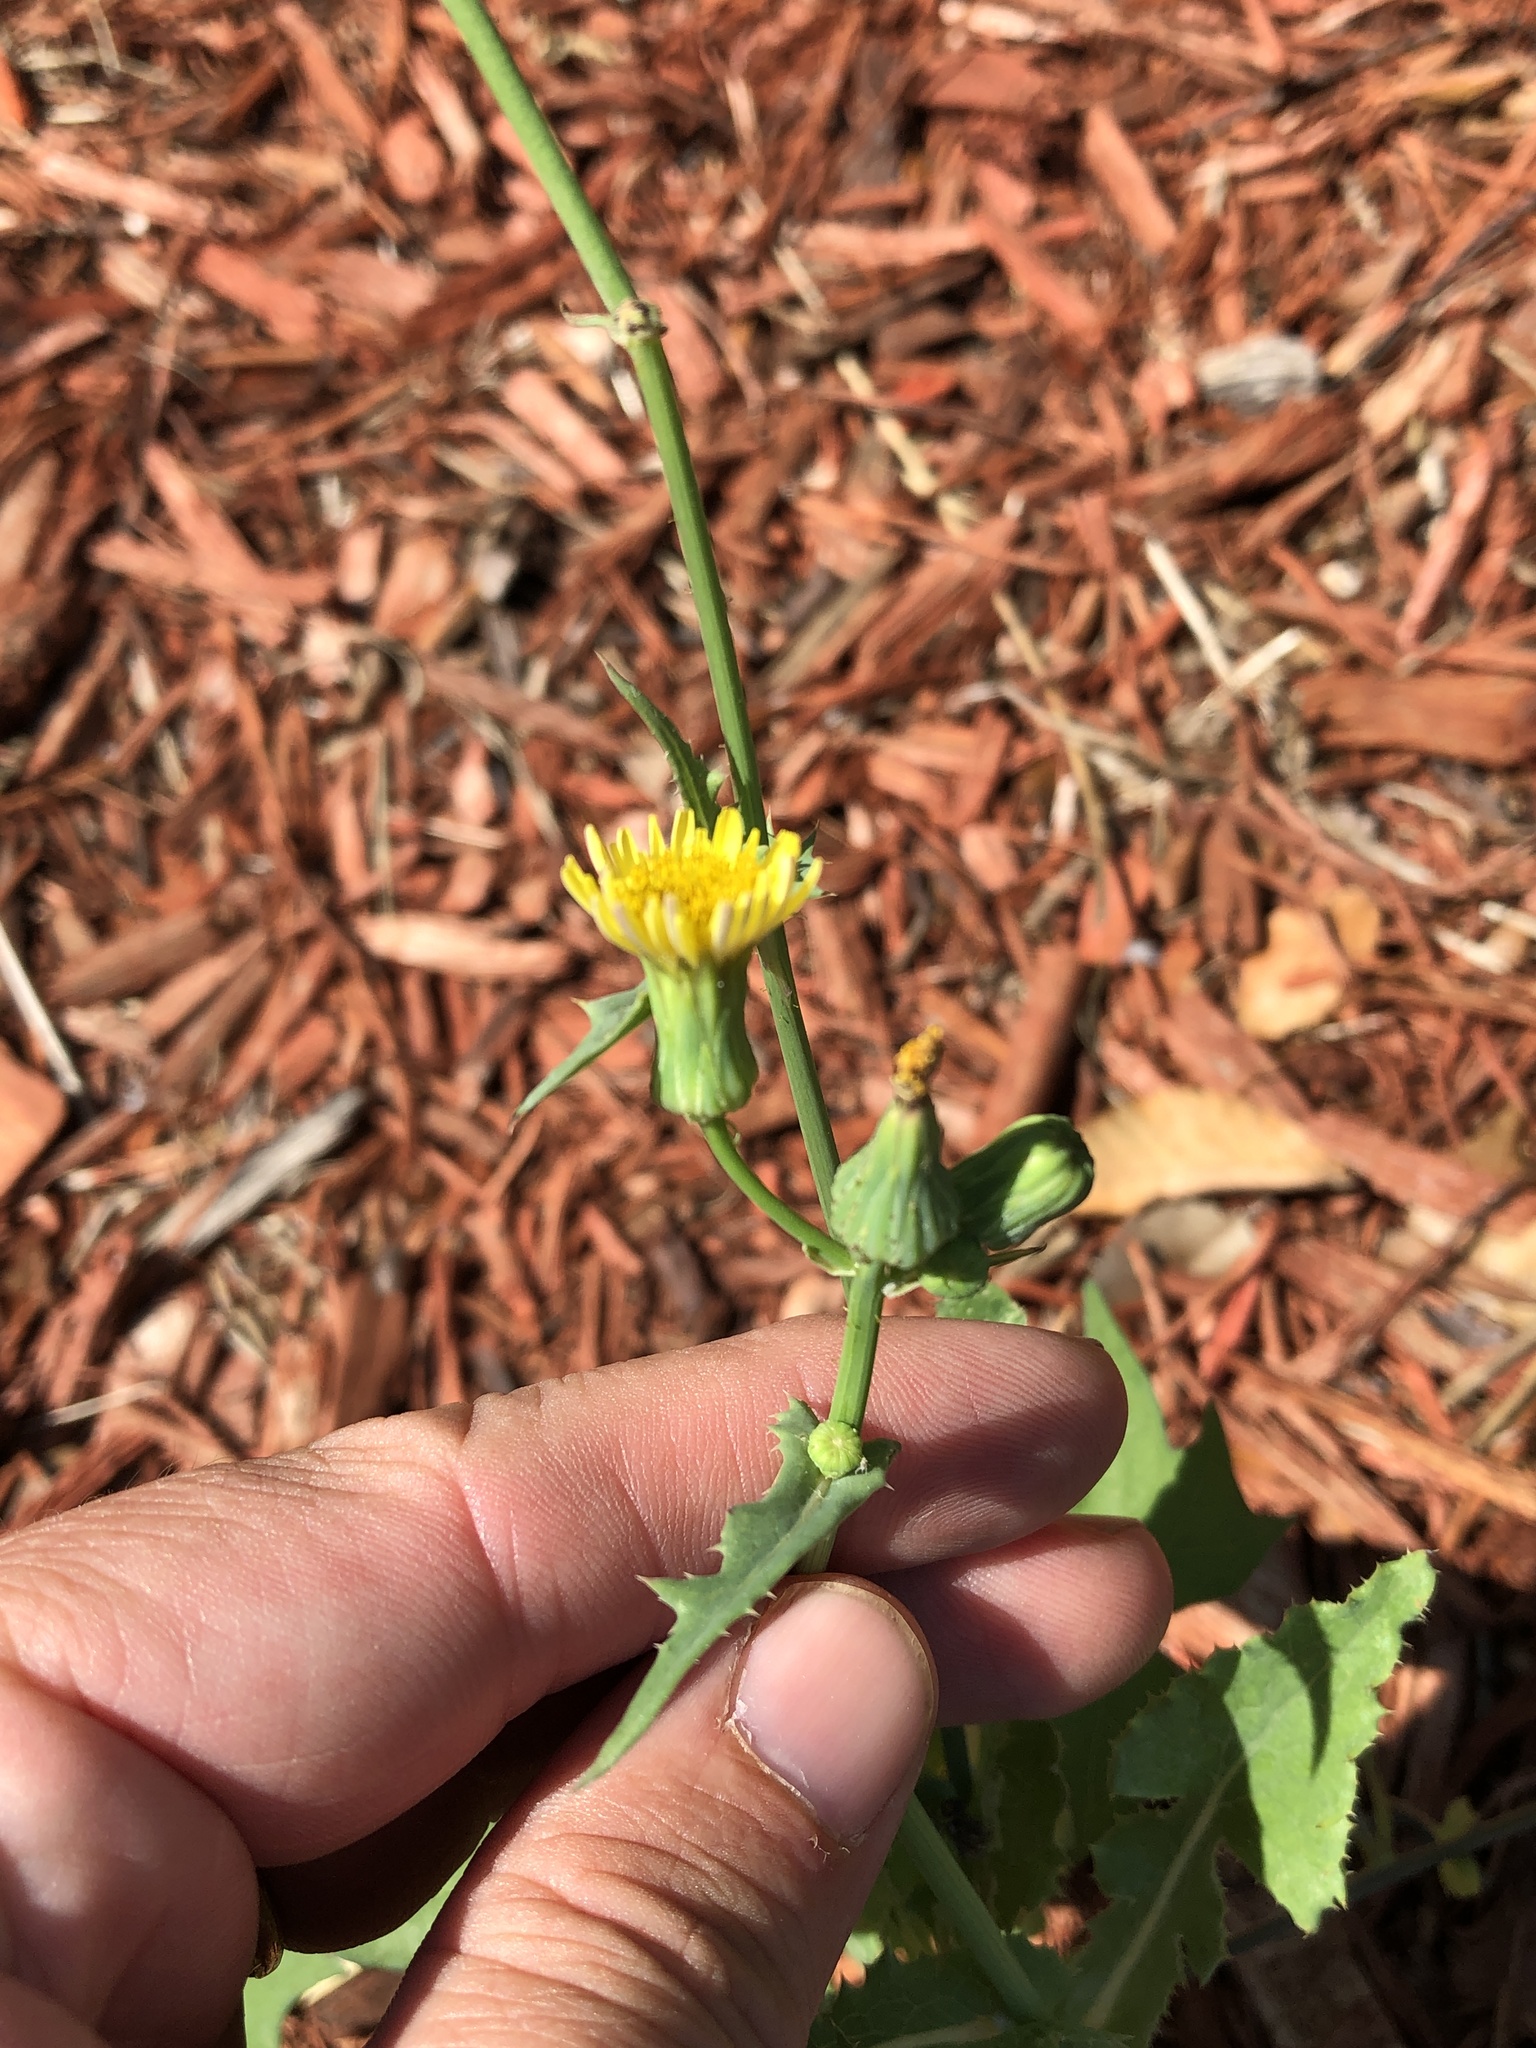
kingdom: Plantae
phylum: Tracheophyta
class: Magnoliopsida
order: Asterales
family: Asteraceae
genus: Sonchus
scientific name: Sonchus oleraceus
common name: Common sowthistle
